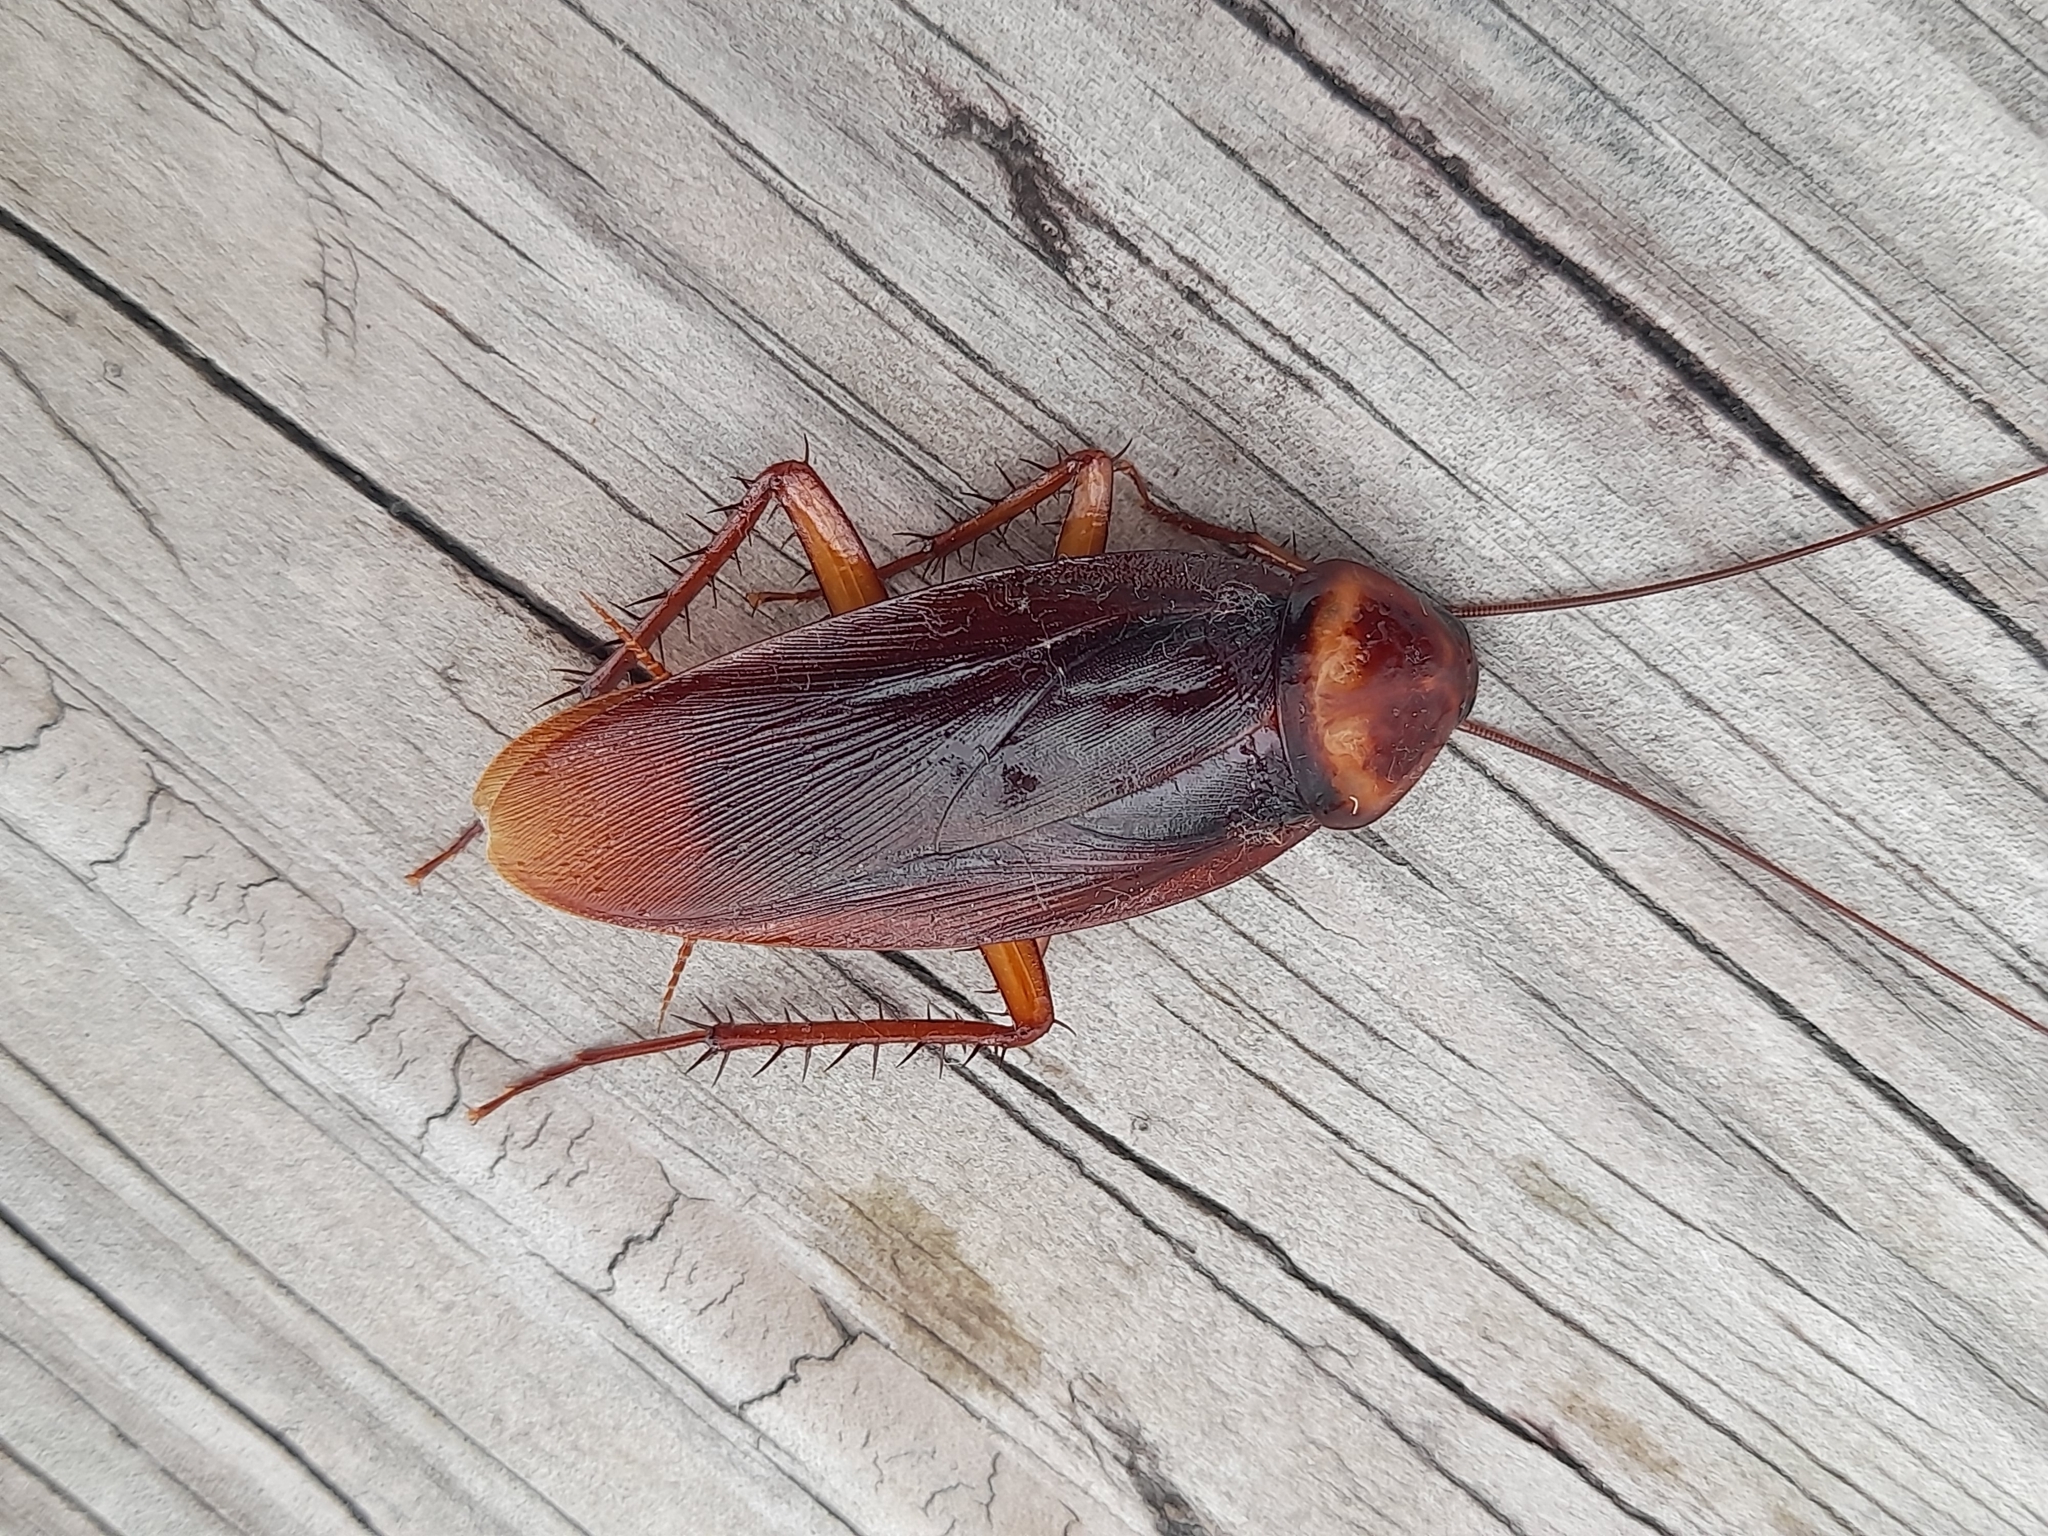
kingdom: Animalia
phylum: Arthropoda
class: Insecta
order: Blattodea
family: Blattidae
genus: Periplaneta
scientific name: Periplaneta americana
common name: American cockroach
